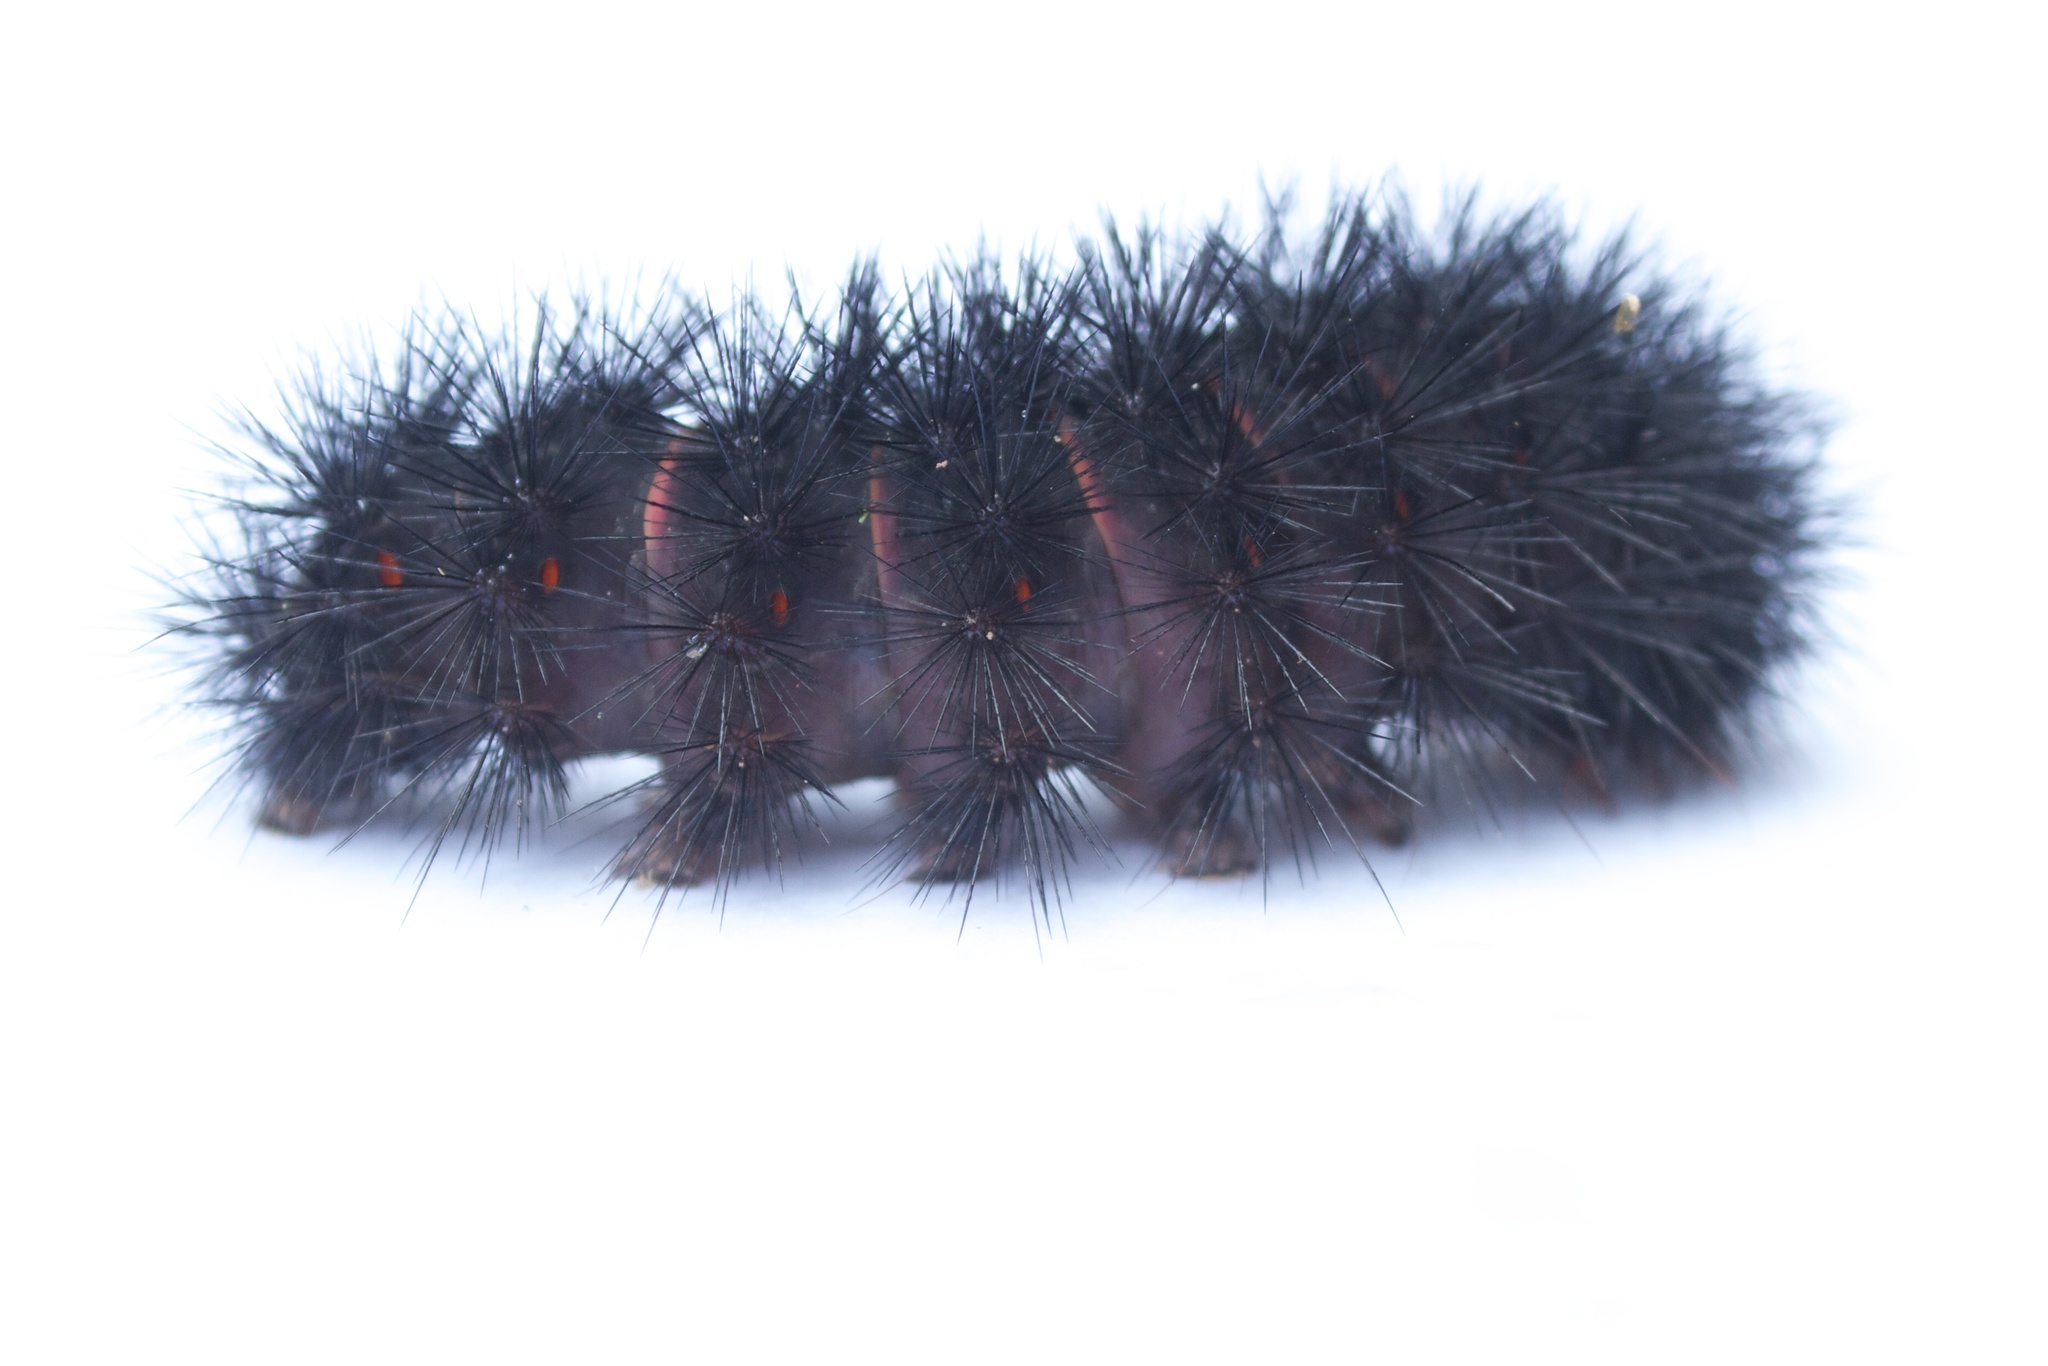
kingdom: Animalia
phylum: Arthropoda
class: Insecta
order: Lepidoptera
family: Erebidae
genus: Hypercompe
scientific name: Hypercompe scribonia
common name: Giant leopard moth
